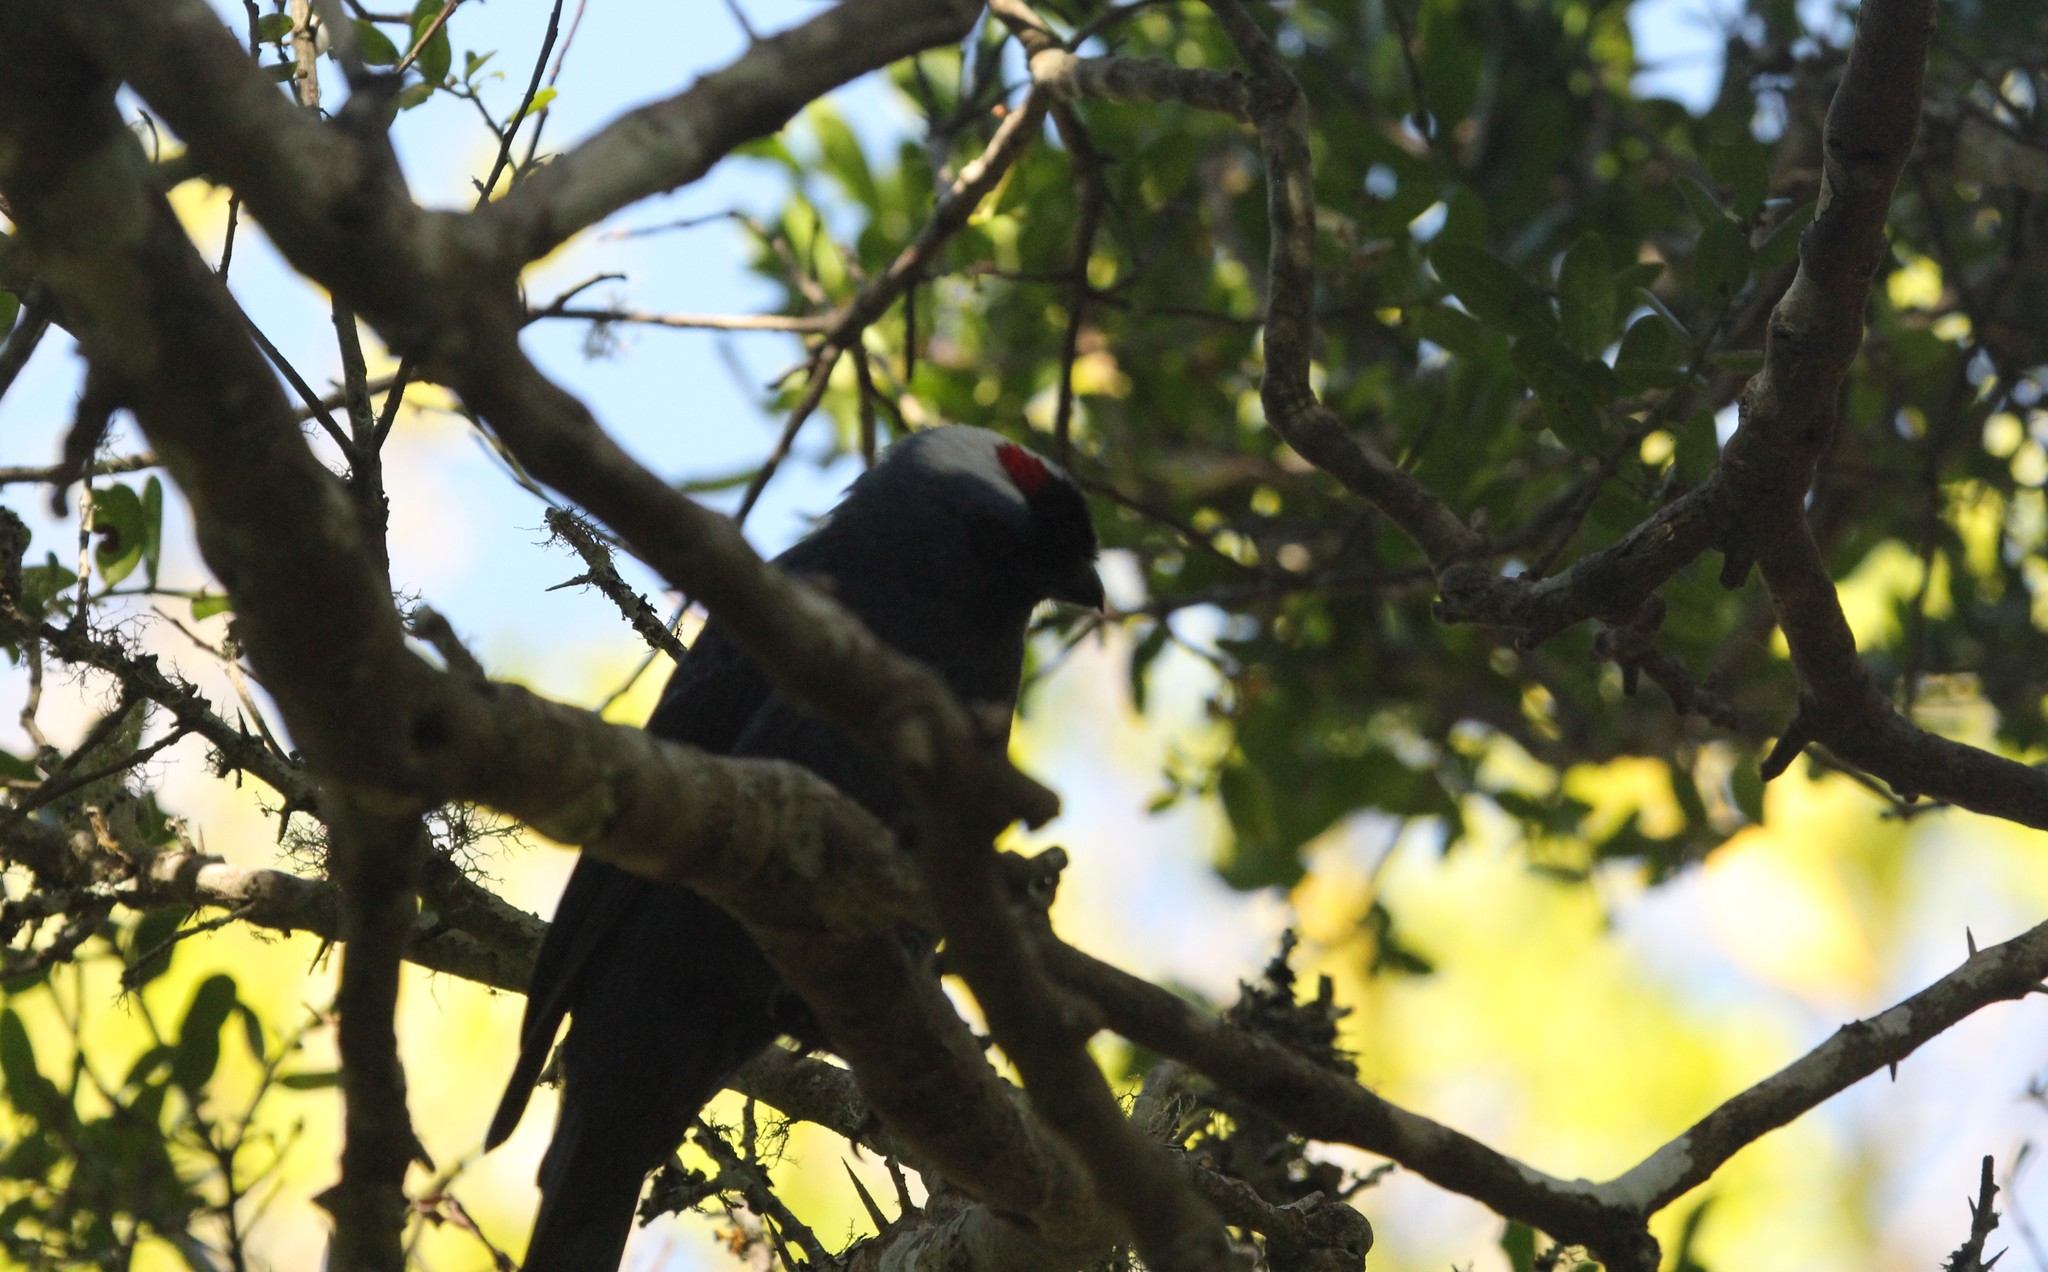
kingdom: Animalia
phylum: Chordata
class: Aves
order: Passeriformes
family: Thraupidae
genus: Stephanophorus
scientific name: Stephanophorus diadematus
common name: Diademed tanager
